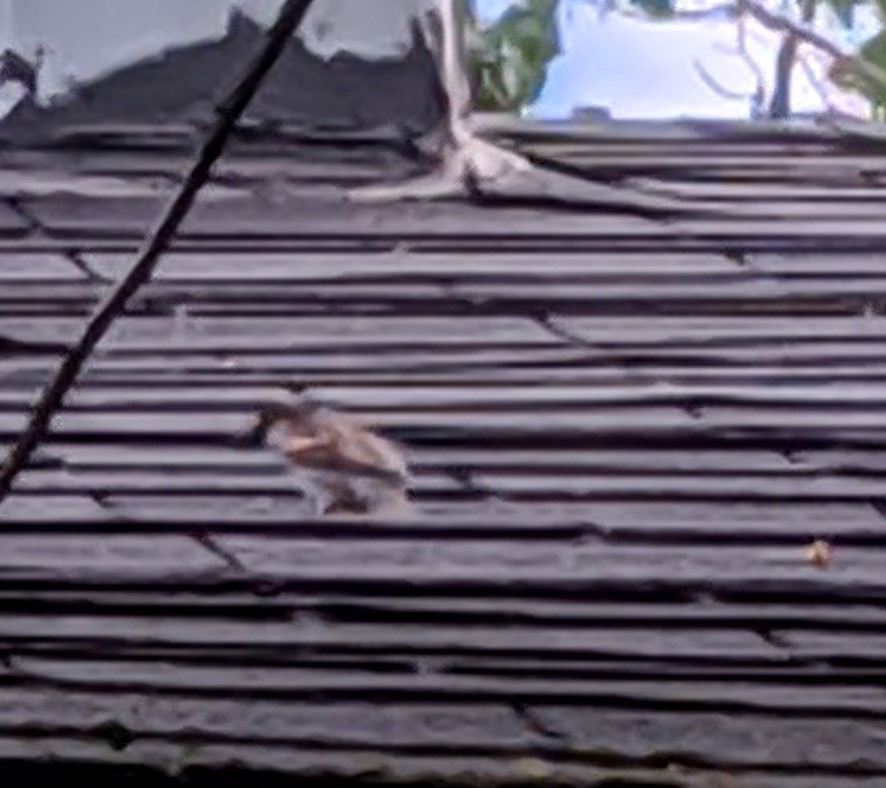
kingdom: Animalia
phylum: Chordata
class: Aves
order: Passeriformes
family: Passeridae
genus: Passer
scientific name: Passer domesticus
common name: House sparrow
